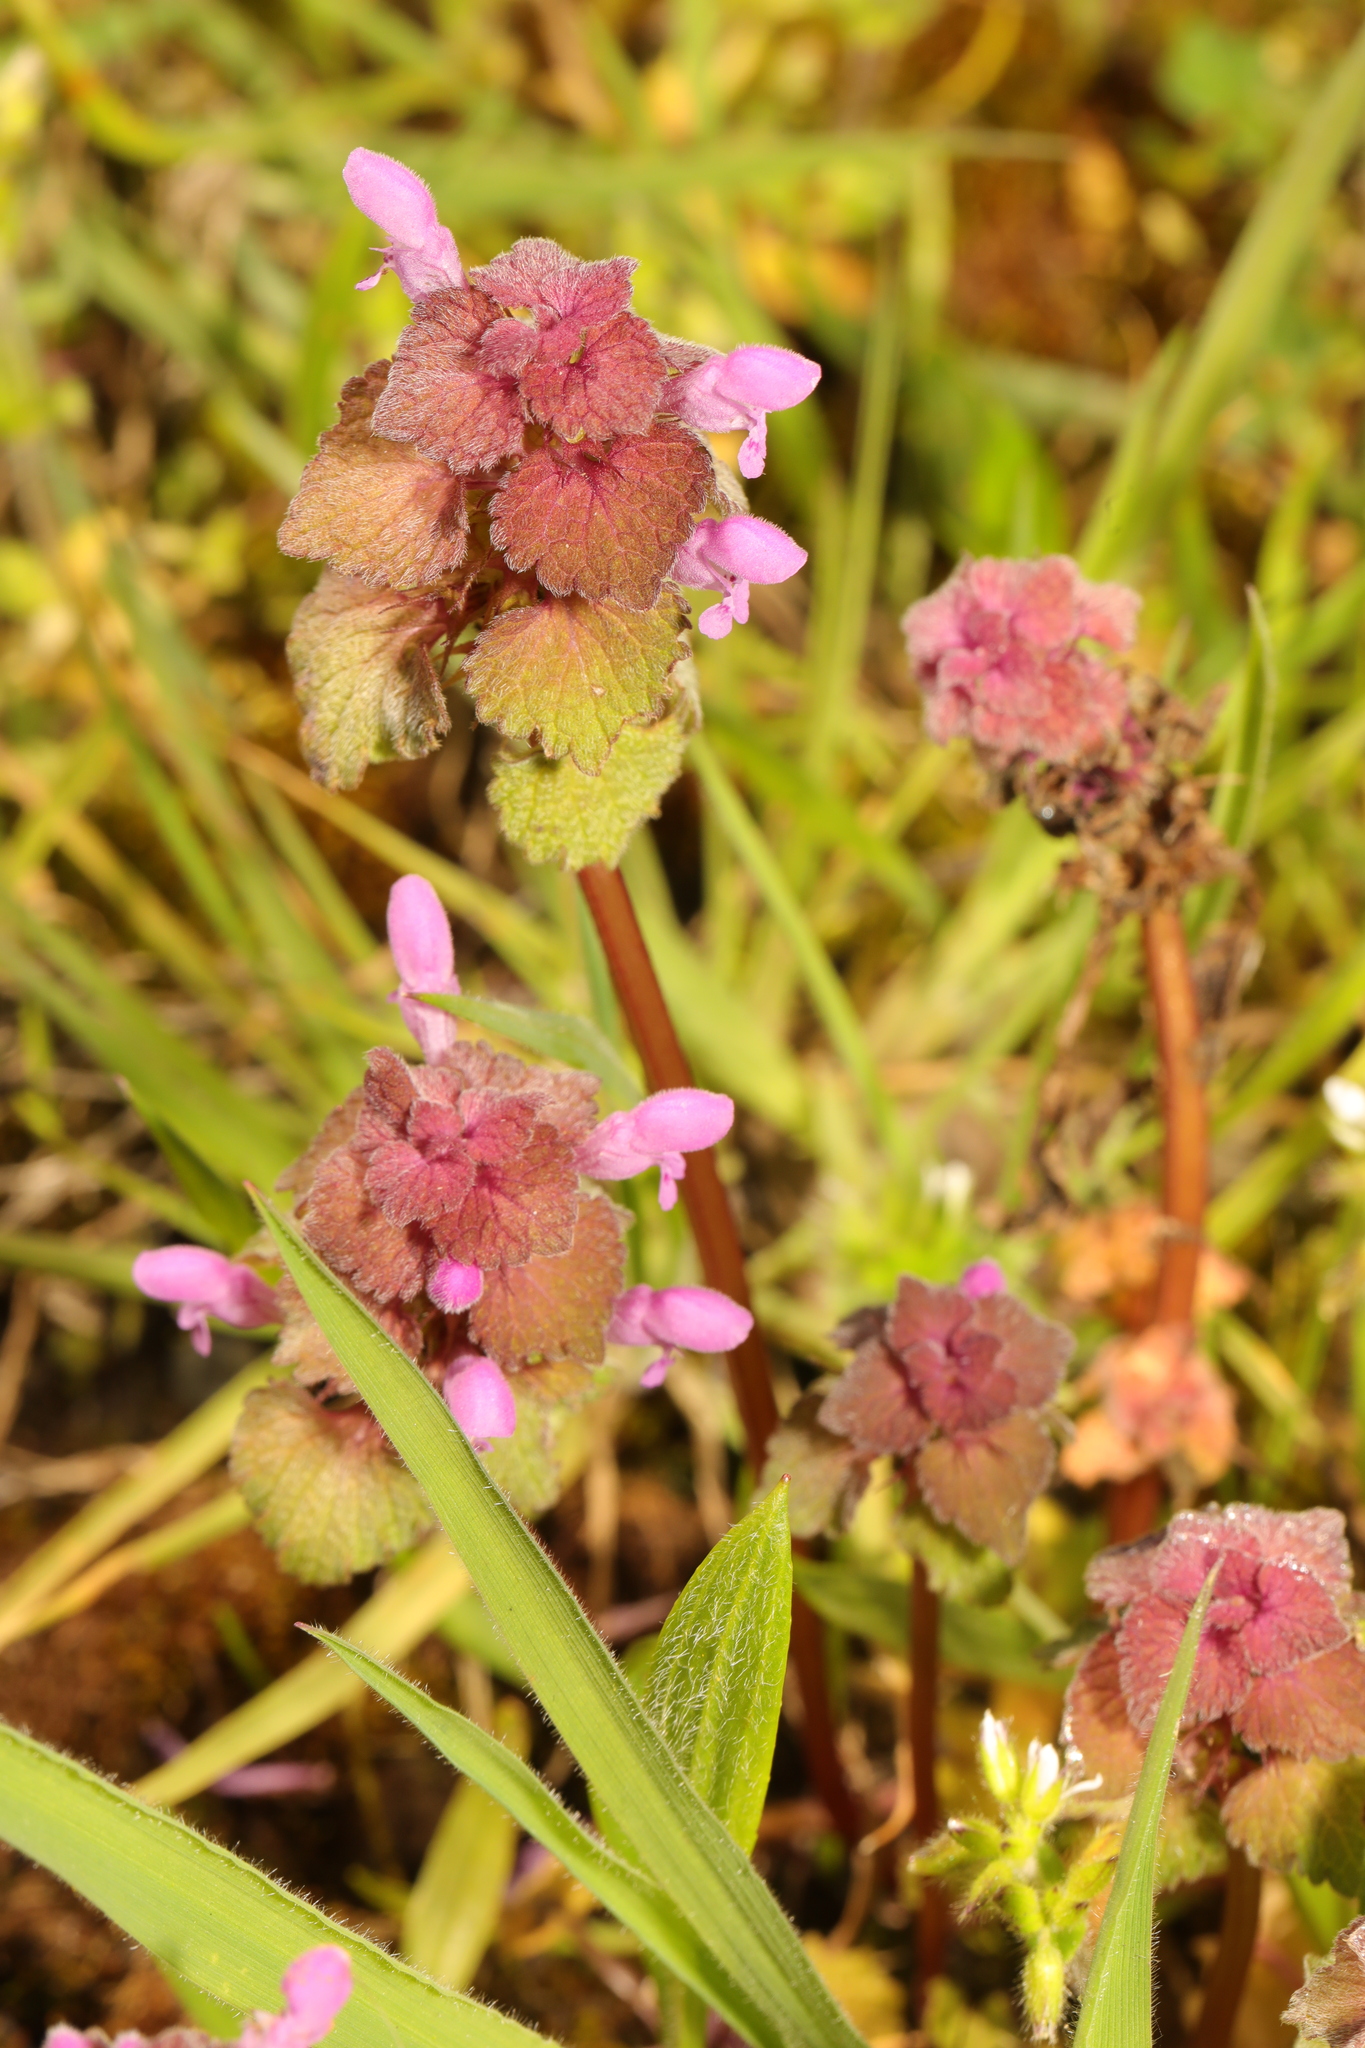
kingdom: Plantae
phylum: Tracheophyta
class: Magnoliopsida
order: Lamiales
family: Lamiaceae
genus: Lamium
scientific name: Lamium purpureum
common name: Red dead-nettle
